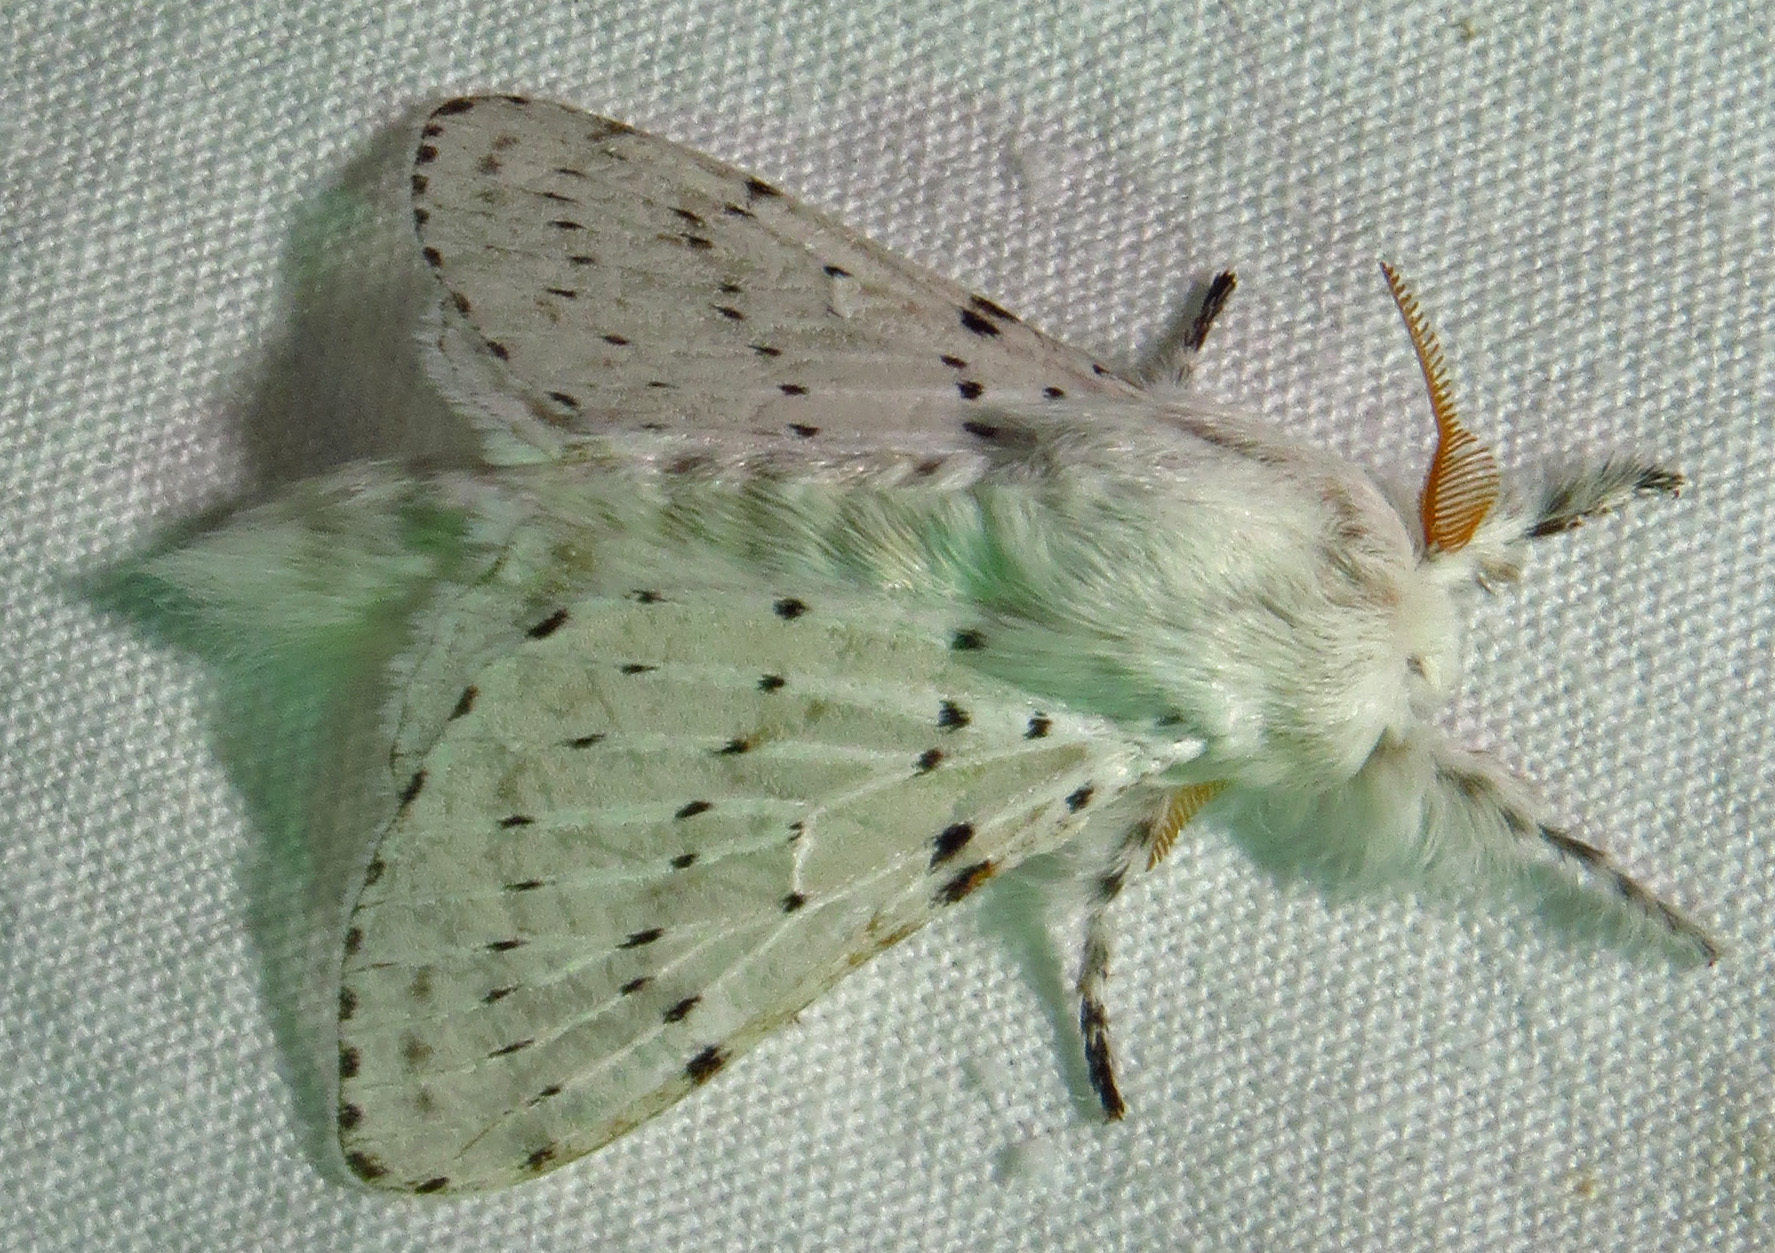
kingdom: Animalia
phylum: Arthropoda
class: Insecta
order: Lepidoptera
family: Lasiocampidae
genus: Artace
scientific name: Artace cribrarius
